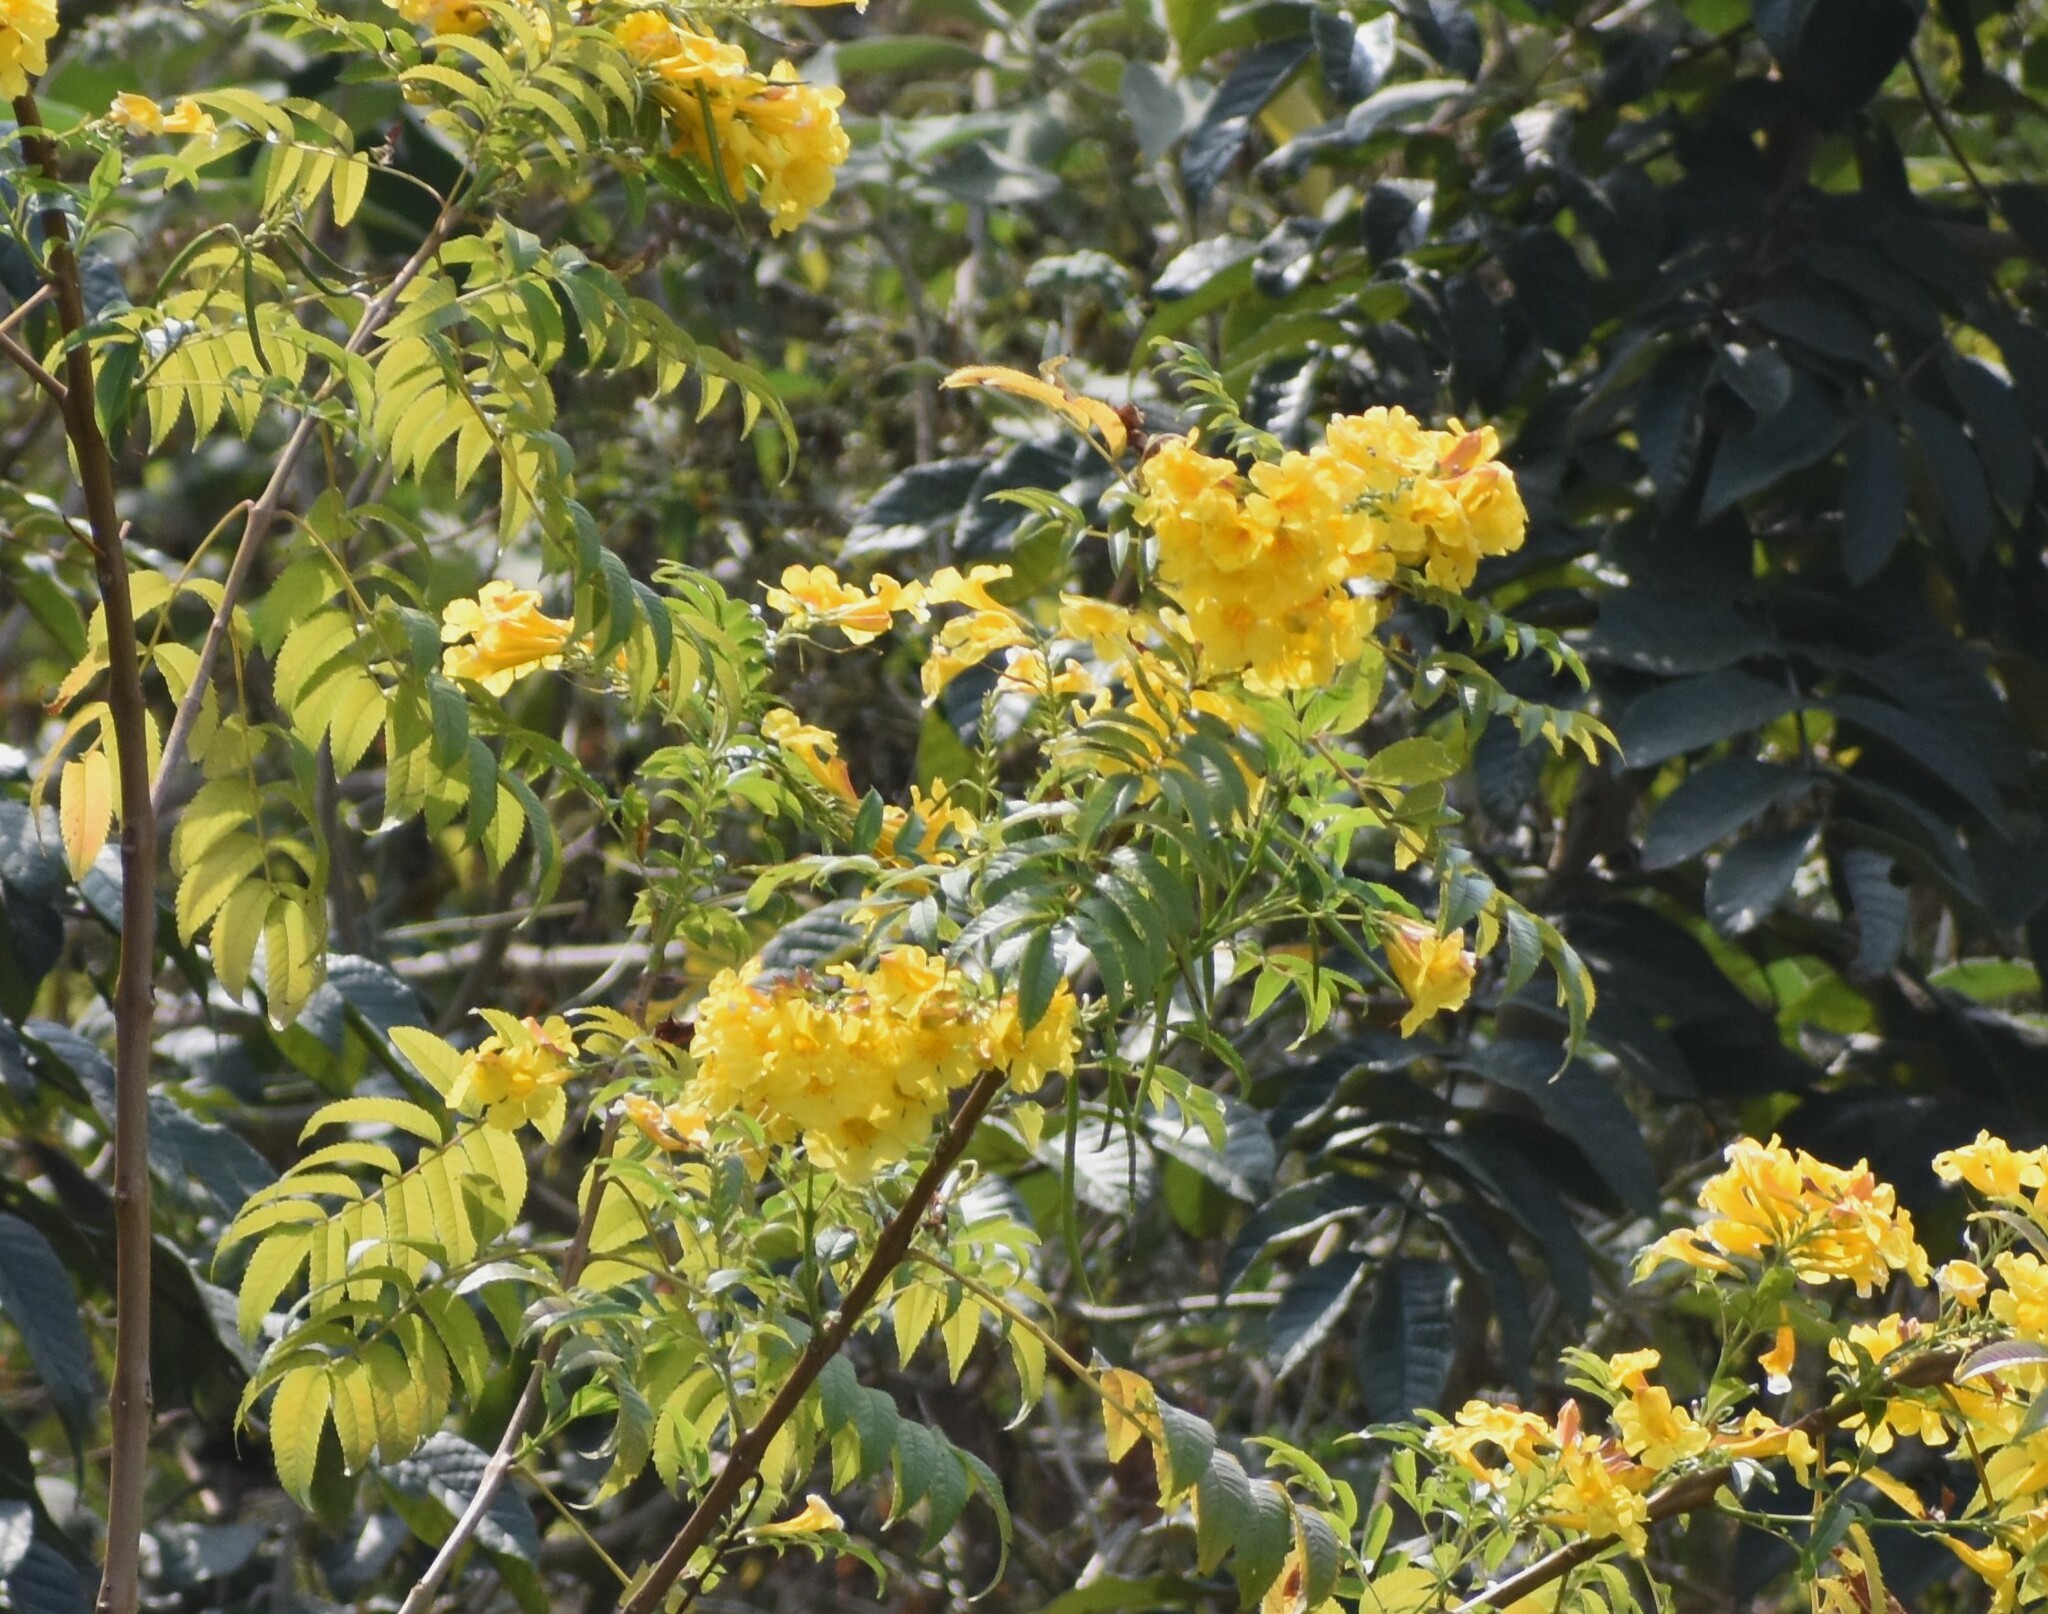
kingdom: Plantae
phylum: Tracheophyta
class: Magnoliopsida
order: Lamiales
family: Bignoniaceae
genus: Tecoma
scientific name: Tecoma stans
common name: Yellow trumpetbush
